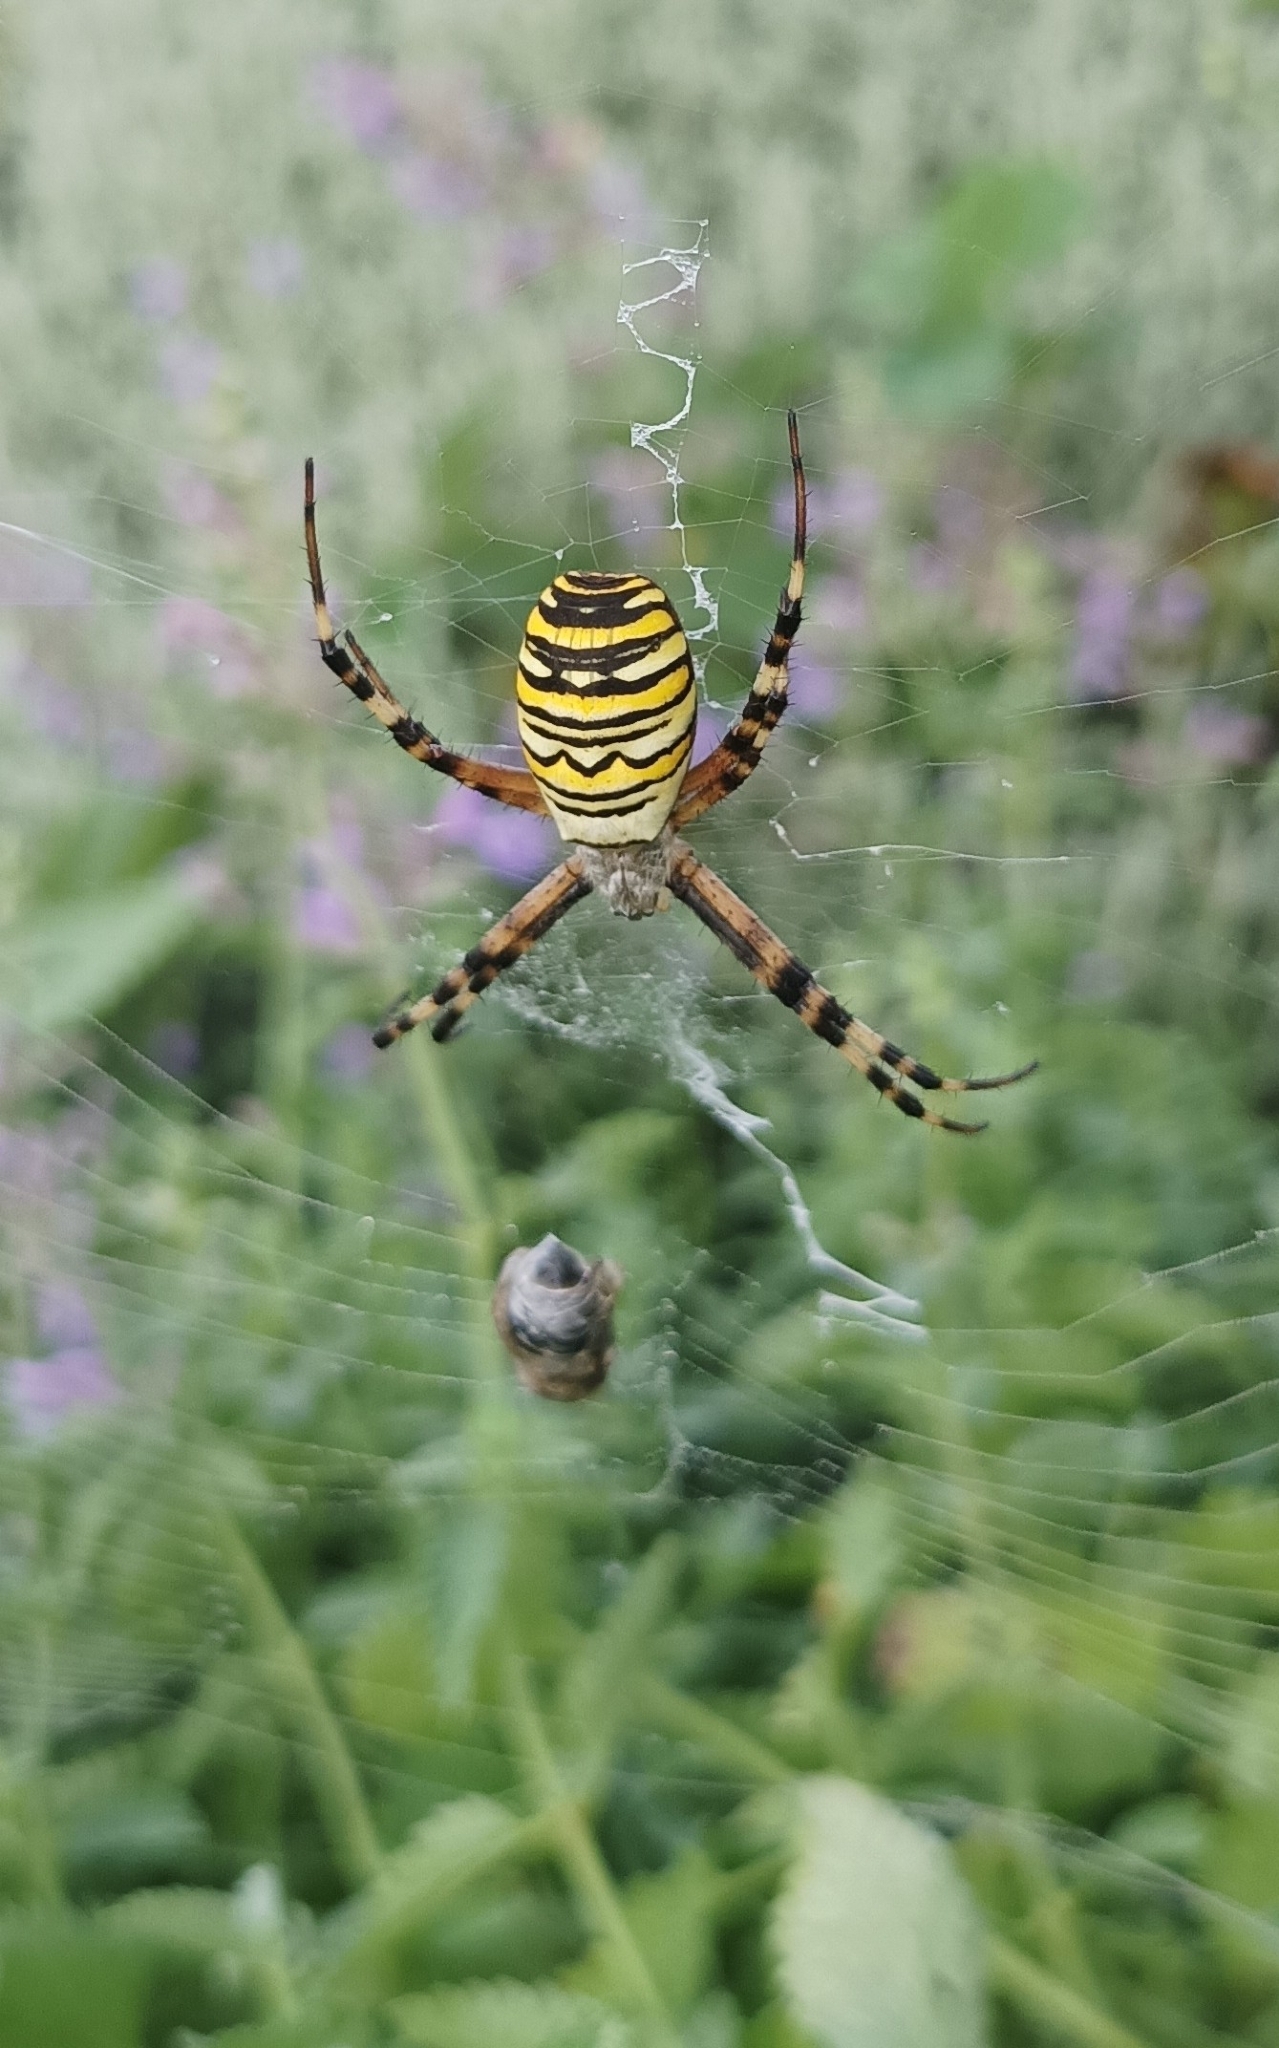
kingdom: Animalia
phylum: Arthropoda
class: Arachnida
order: Araneae
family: Araneidae
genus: Argiope
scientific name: Argiope bruennichi
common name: Wasp spider
